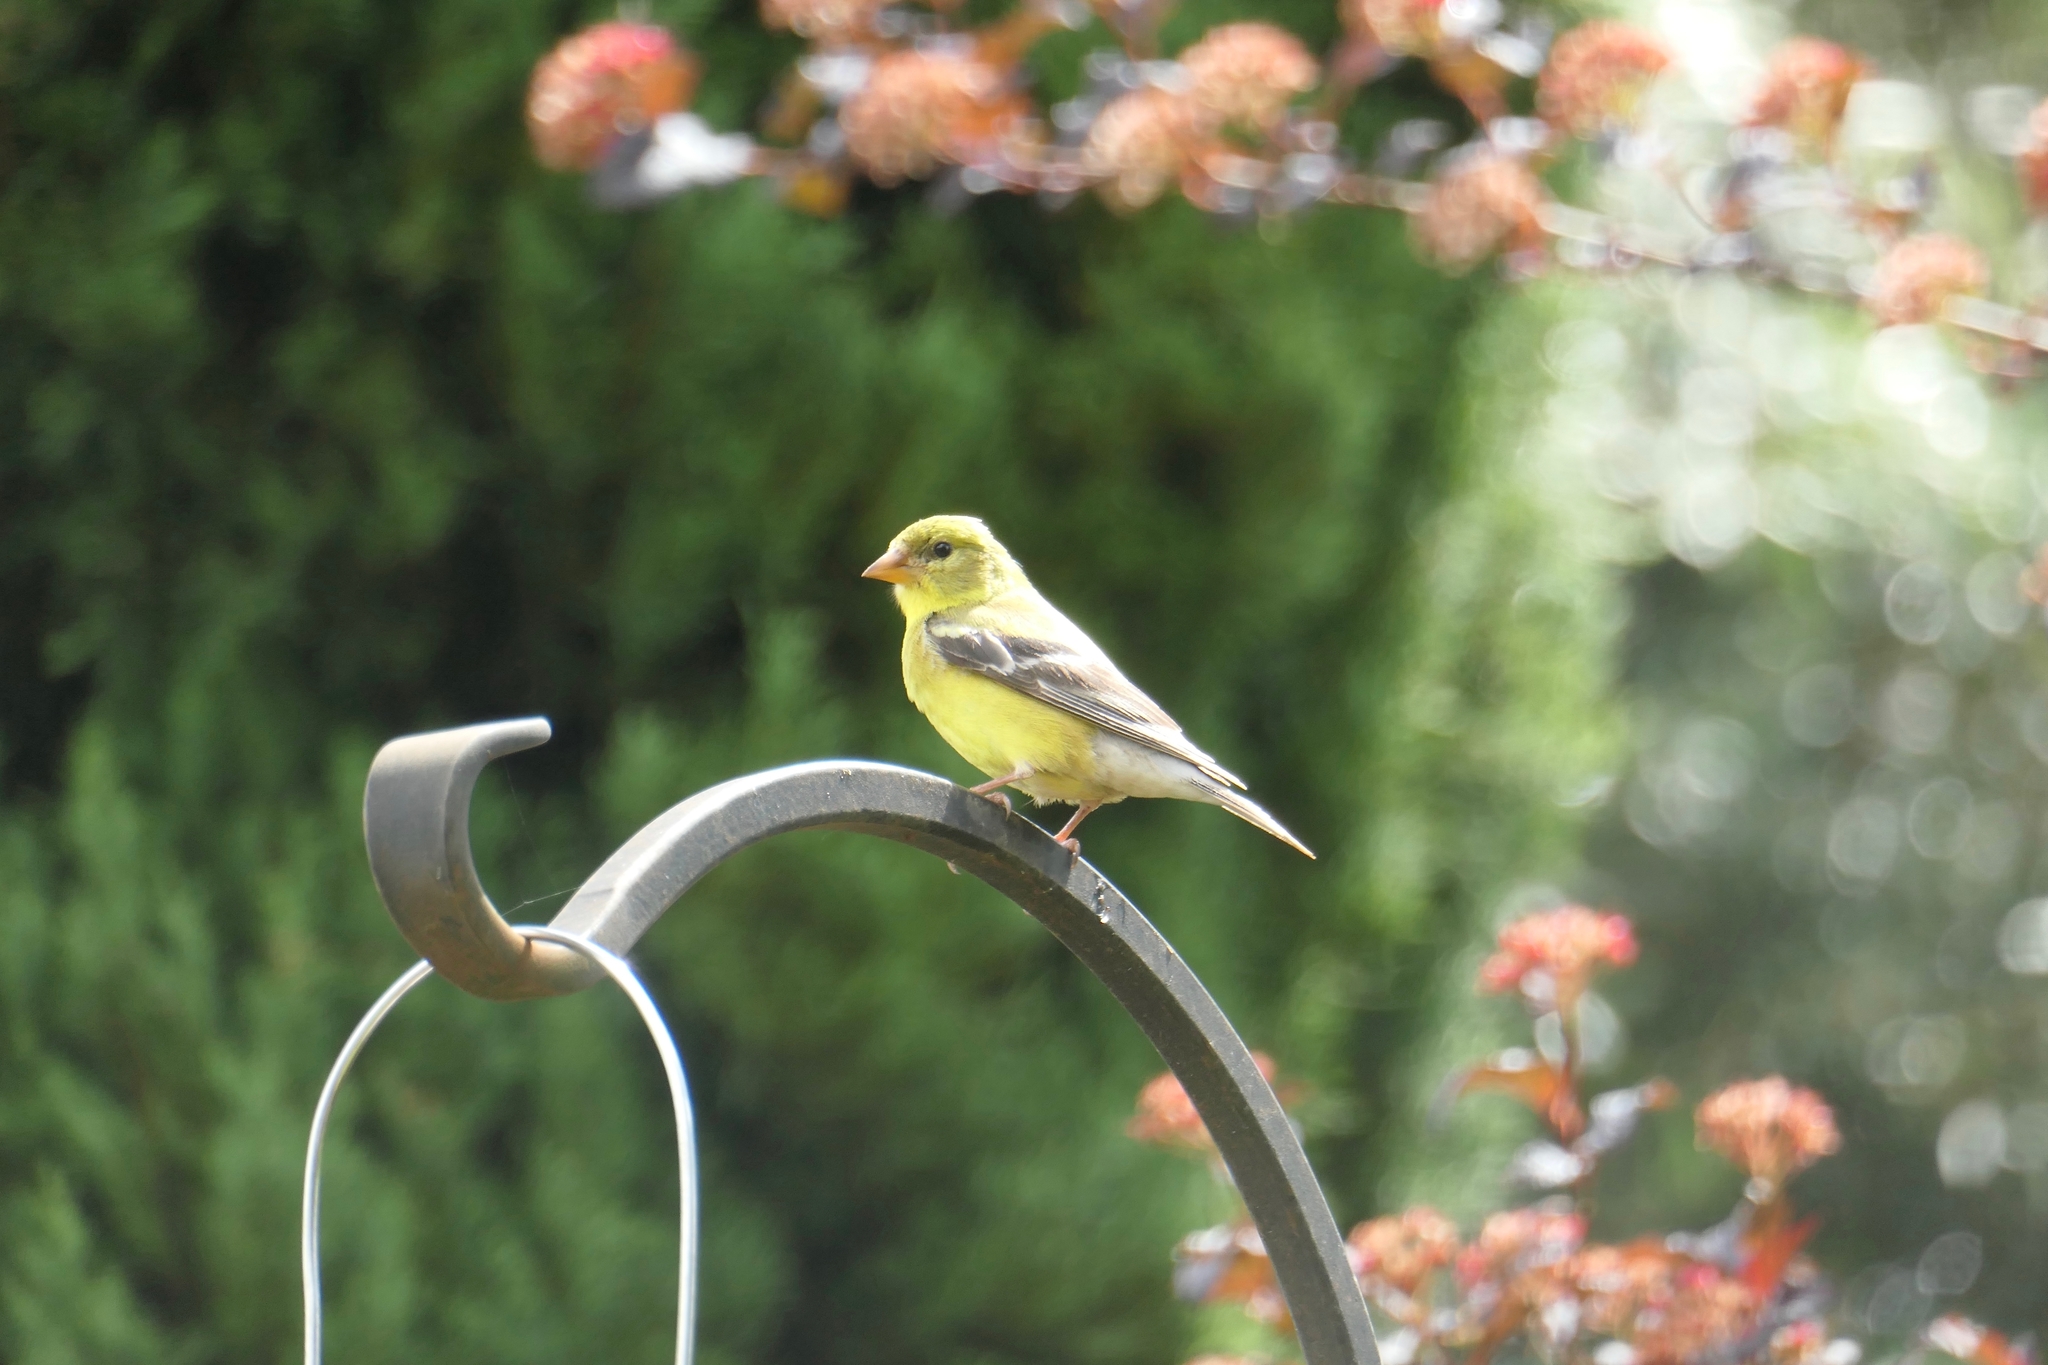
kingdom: Animalia
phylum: Chordata
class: Aves
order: Passeriformes
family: Fringillidae
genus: Spinus
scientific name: Spinus tristis
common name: American goldfinch
